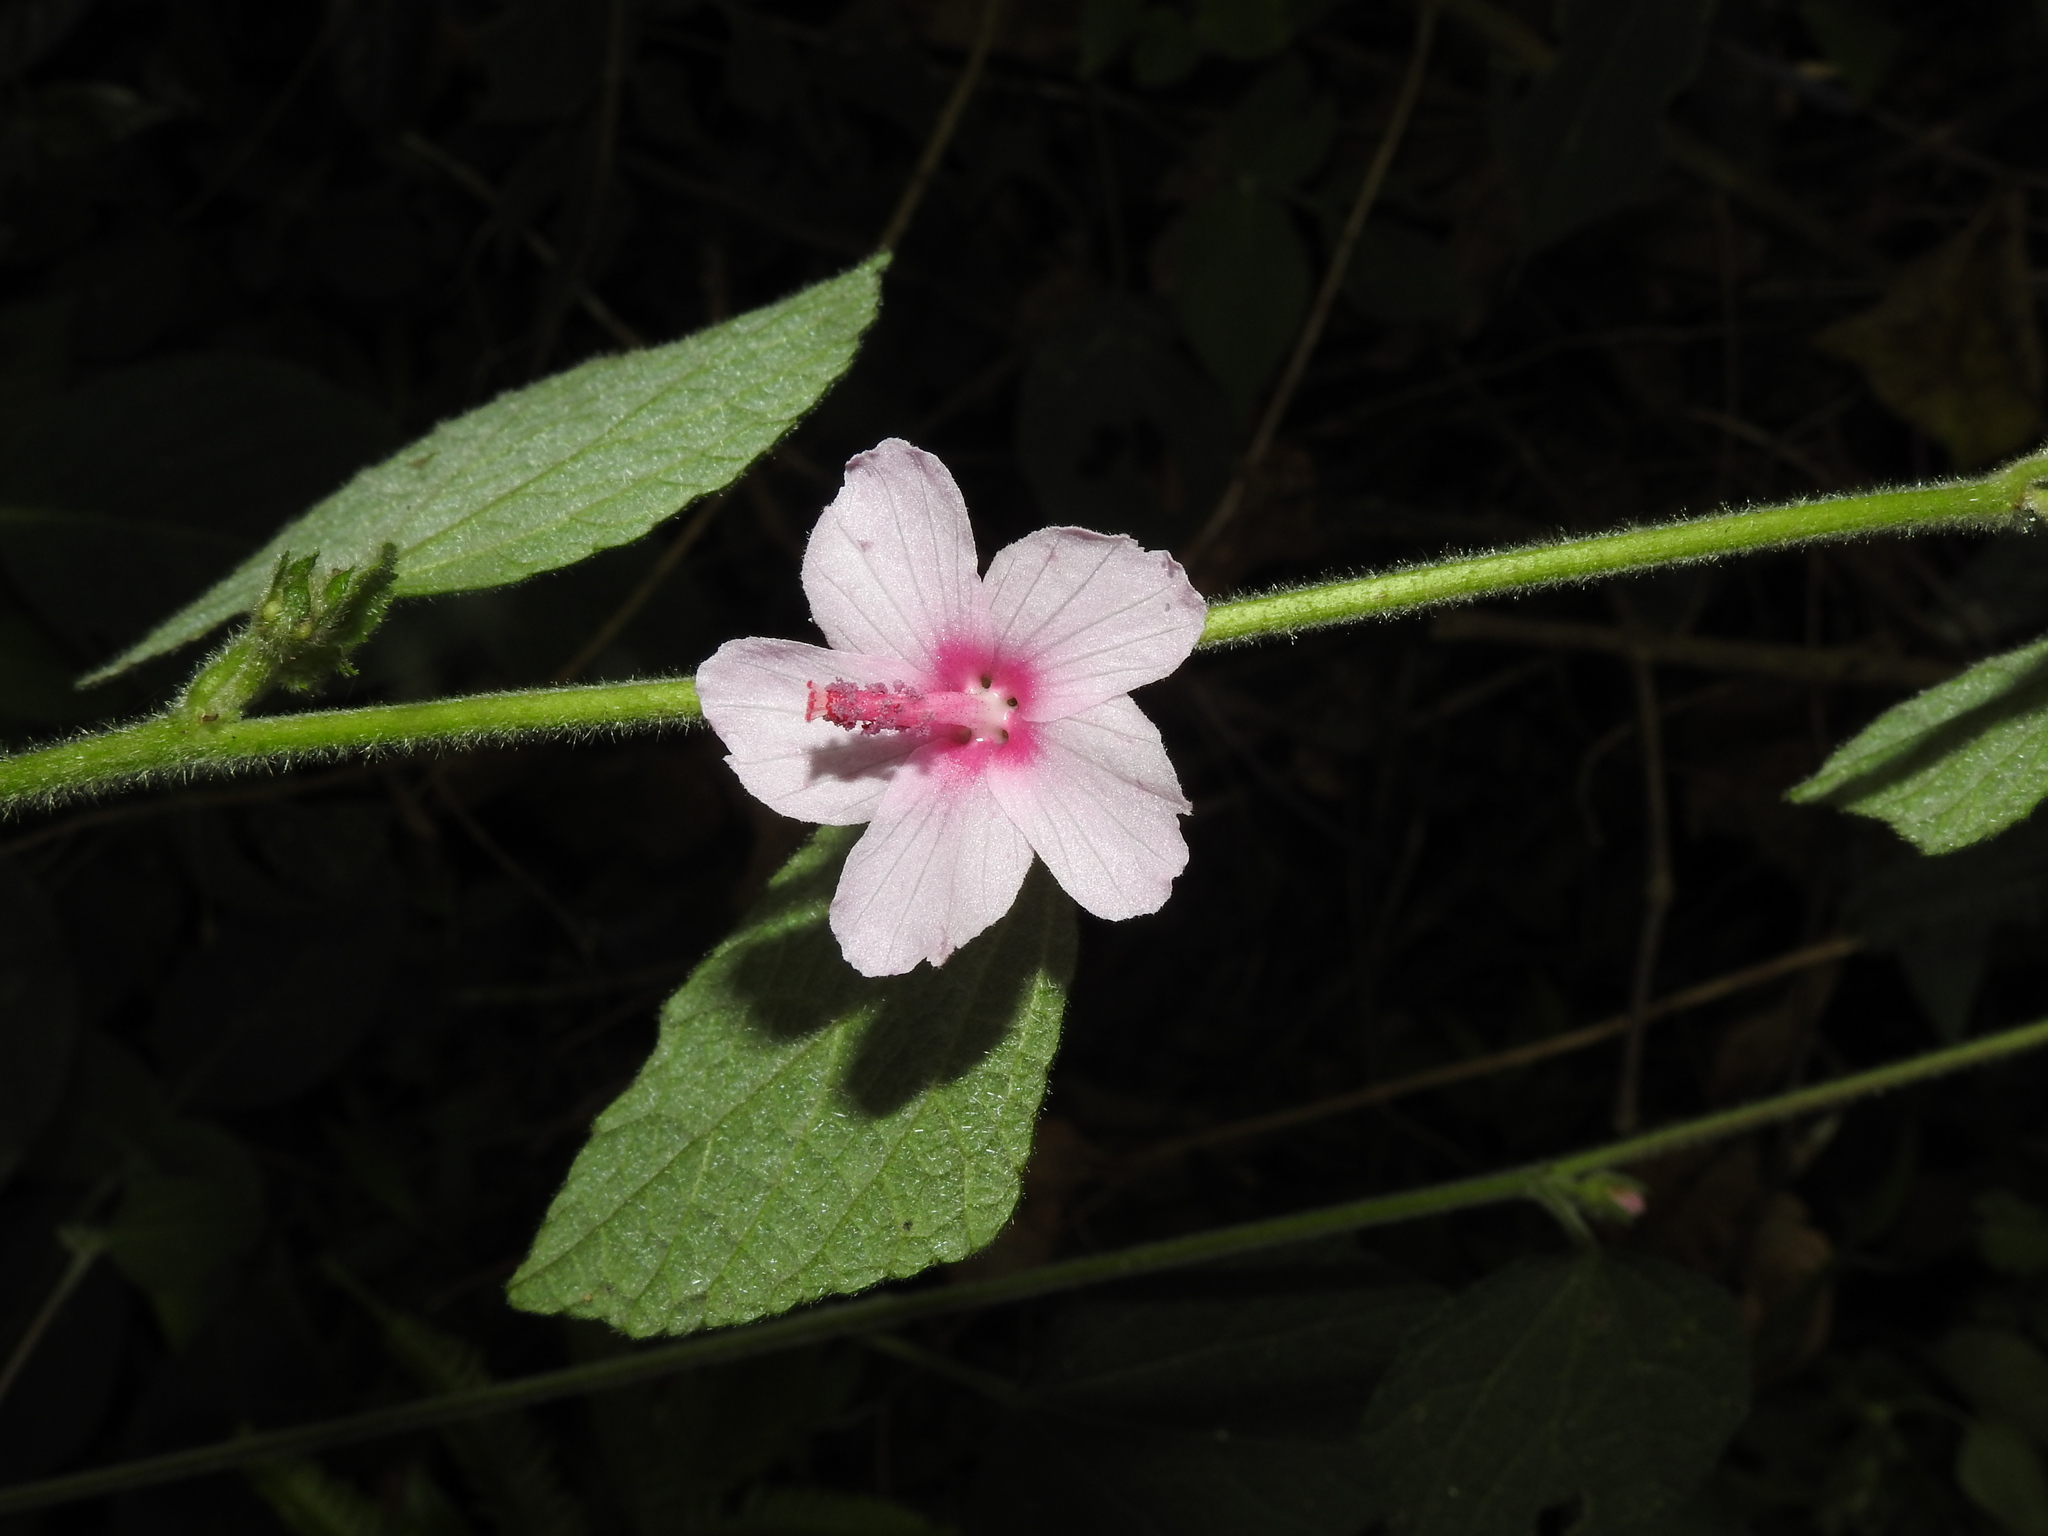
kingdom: Plantae
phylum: Tracheophyta
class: Magnoliopsida
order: Malvales
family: Malvaceae
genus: Urena
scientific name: Urena lobata
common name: Caesarweed
